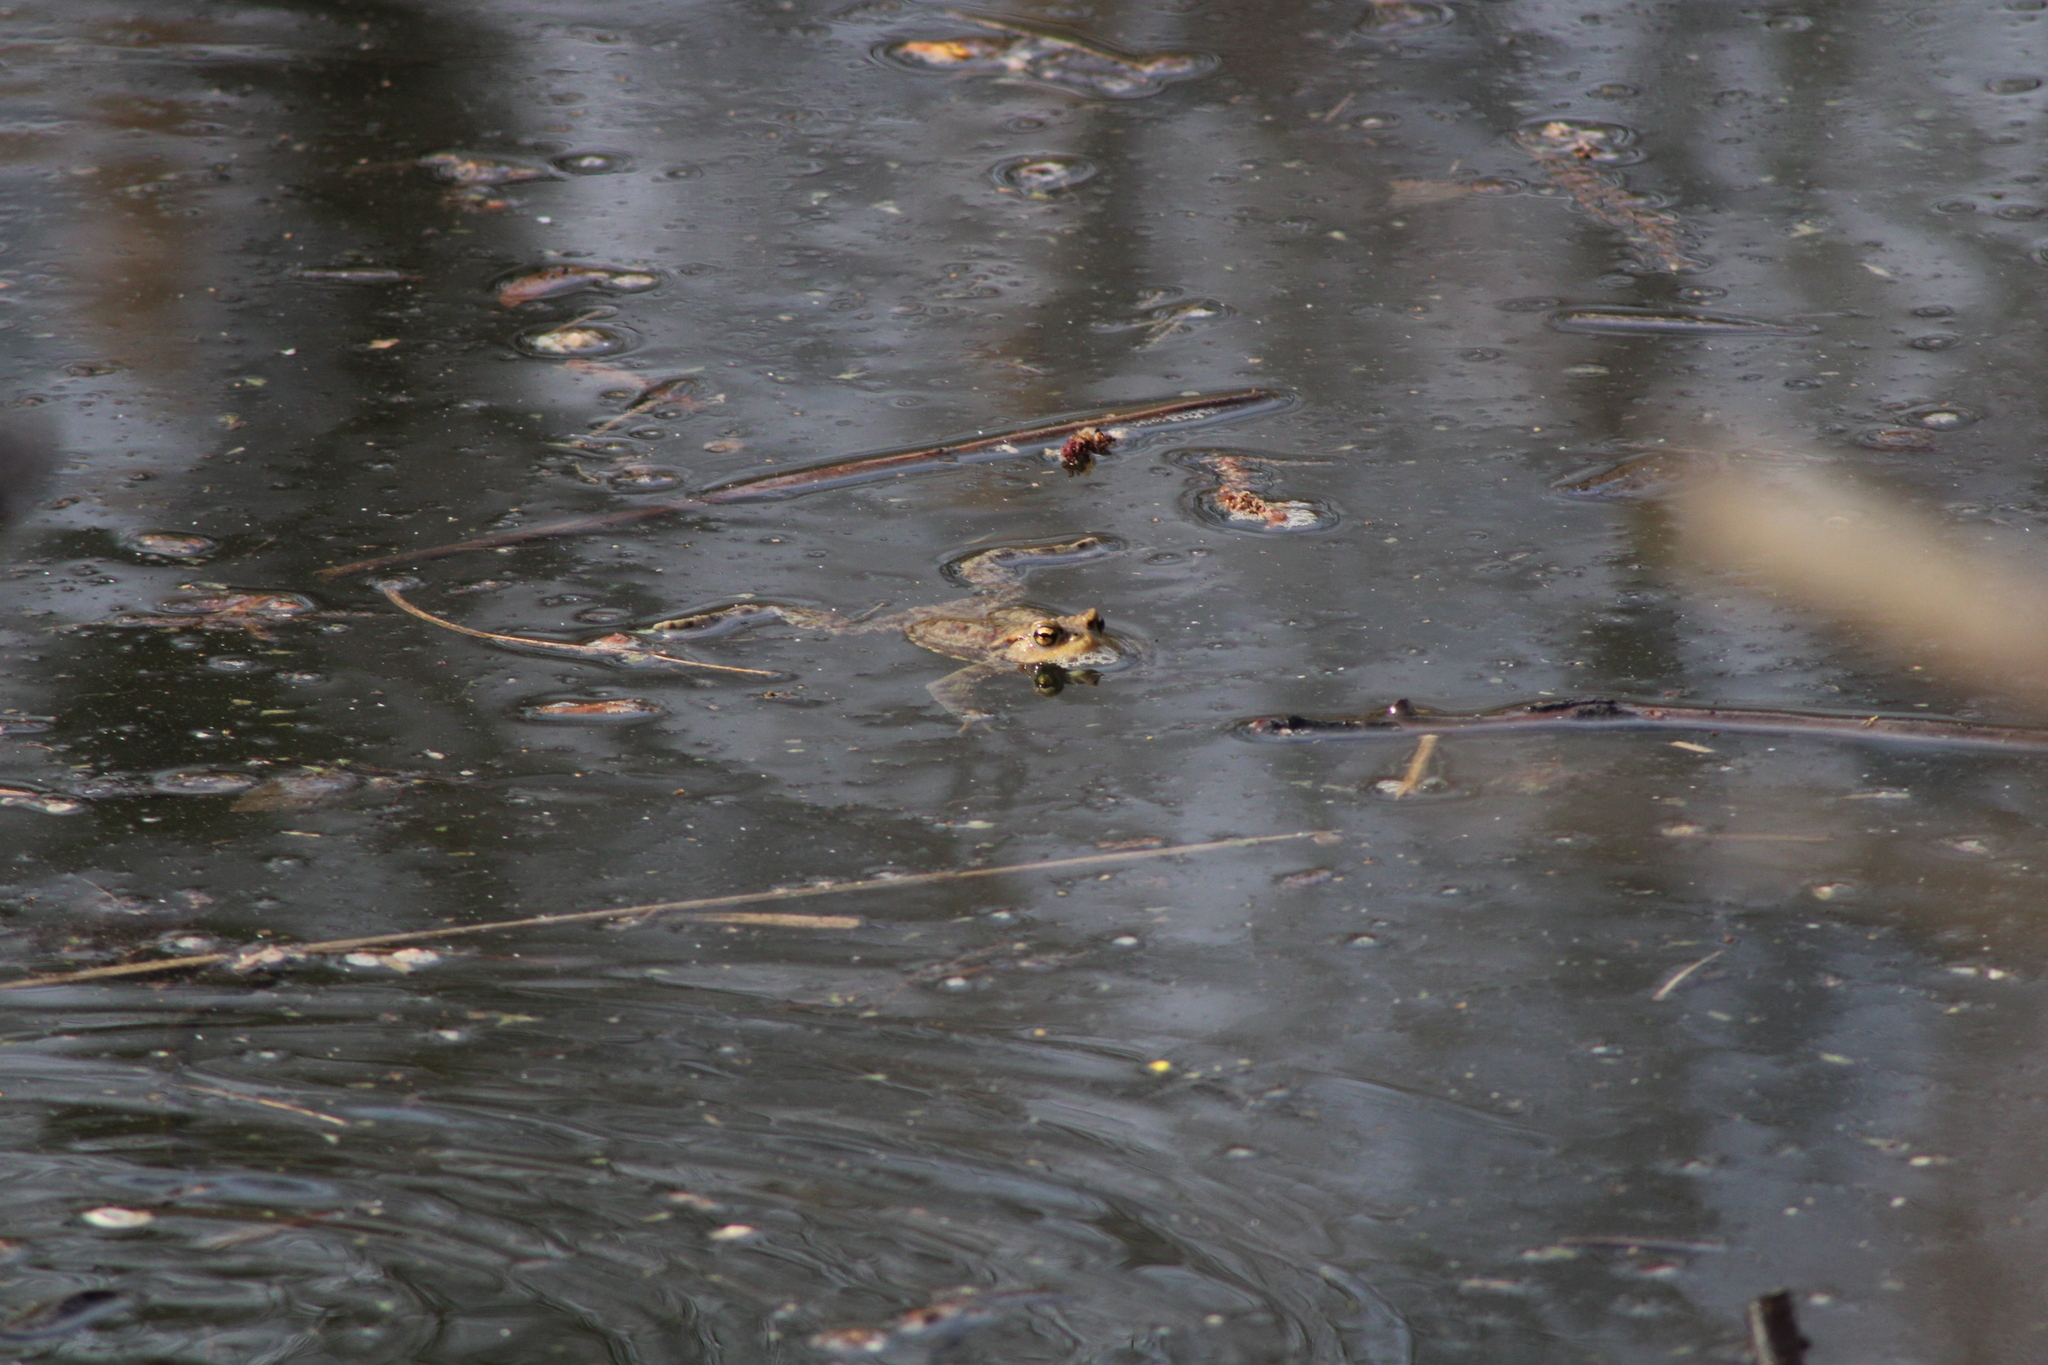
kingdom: Animalia
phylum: Chordata
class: Amphibia
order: Anura
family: Bufonidae
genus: Bufo
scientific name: Bufo bufo
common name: Common toad
